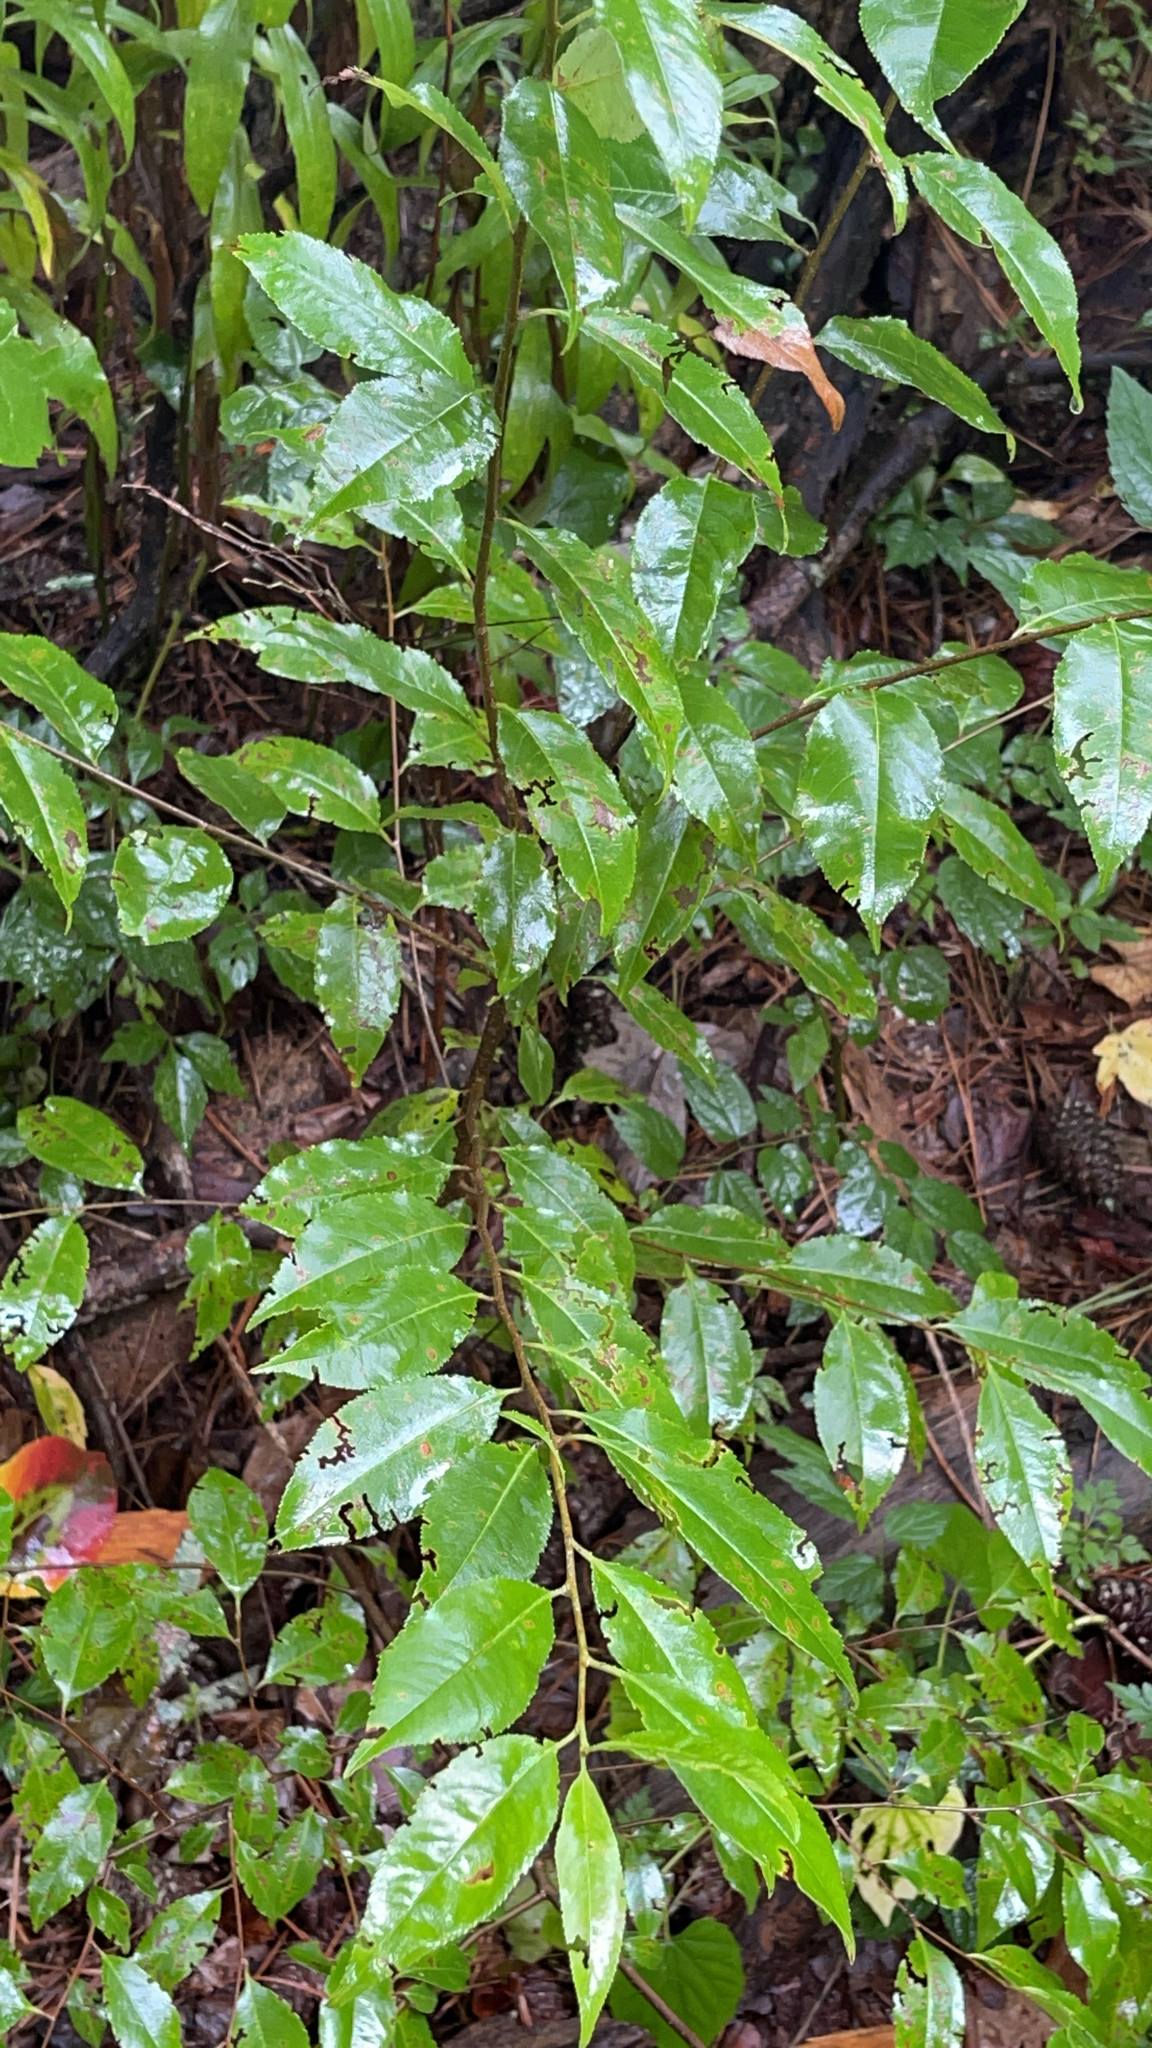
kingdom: Plantae
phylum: Tracheophyta
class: Magnoliopsida
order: Rosales
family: Rosaceae
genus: Prunus
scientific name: Prunus serotina
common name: Black cherry
